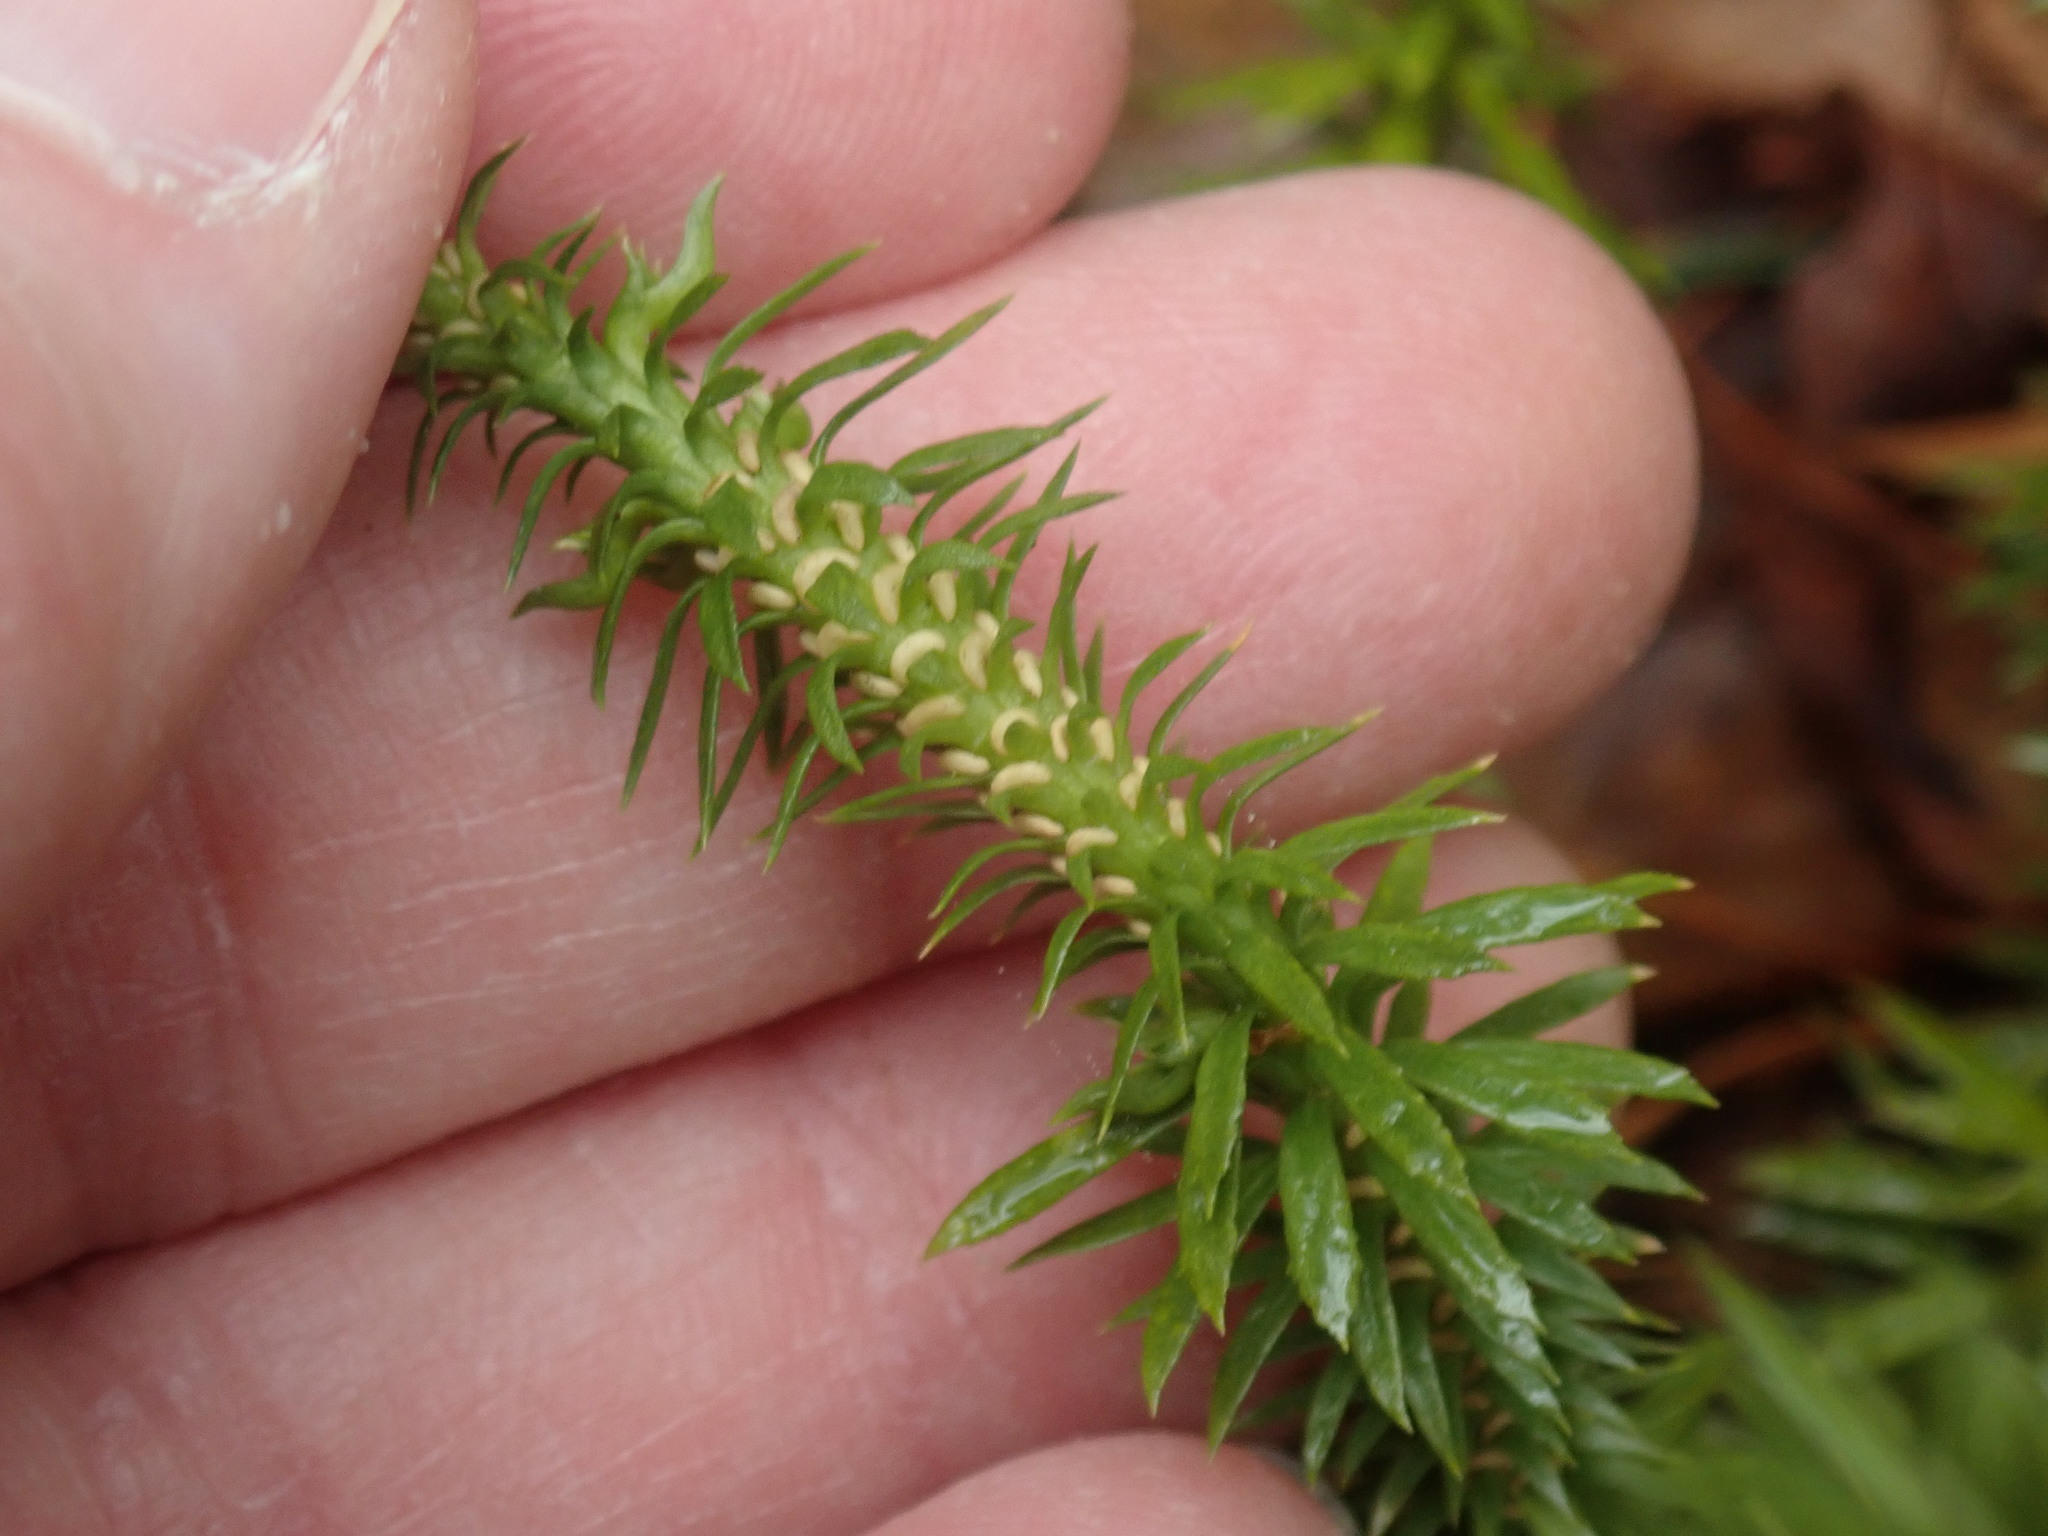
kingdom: Plantae
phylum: Tracheophyta
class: Lycopodiopsida
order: Lycopodiales
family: Lycopodiaceae
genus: Huperzia
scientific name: Huperzia lucidula
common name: Shining clubmoss
